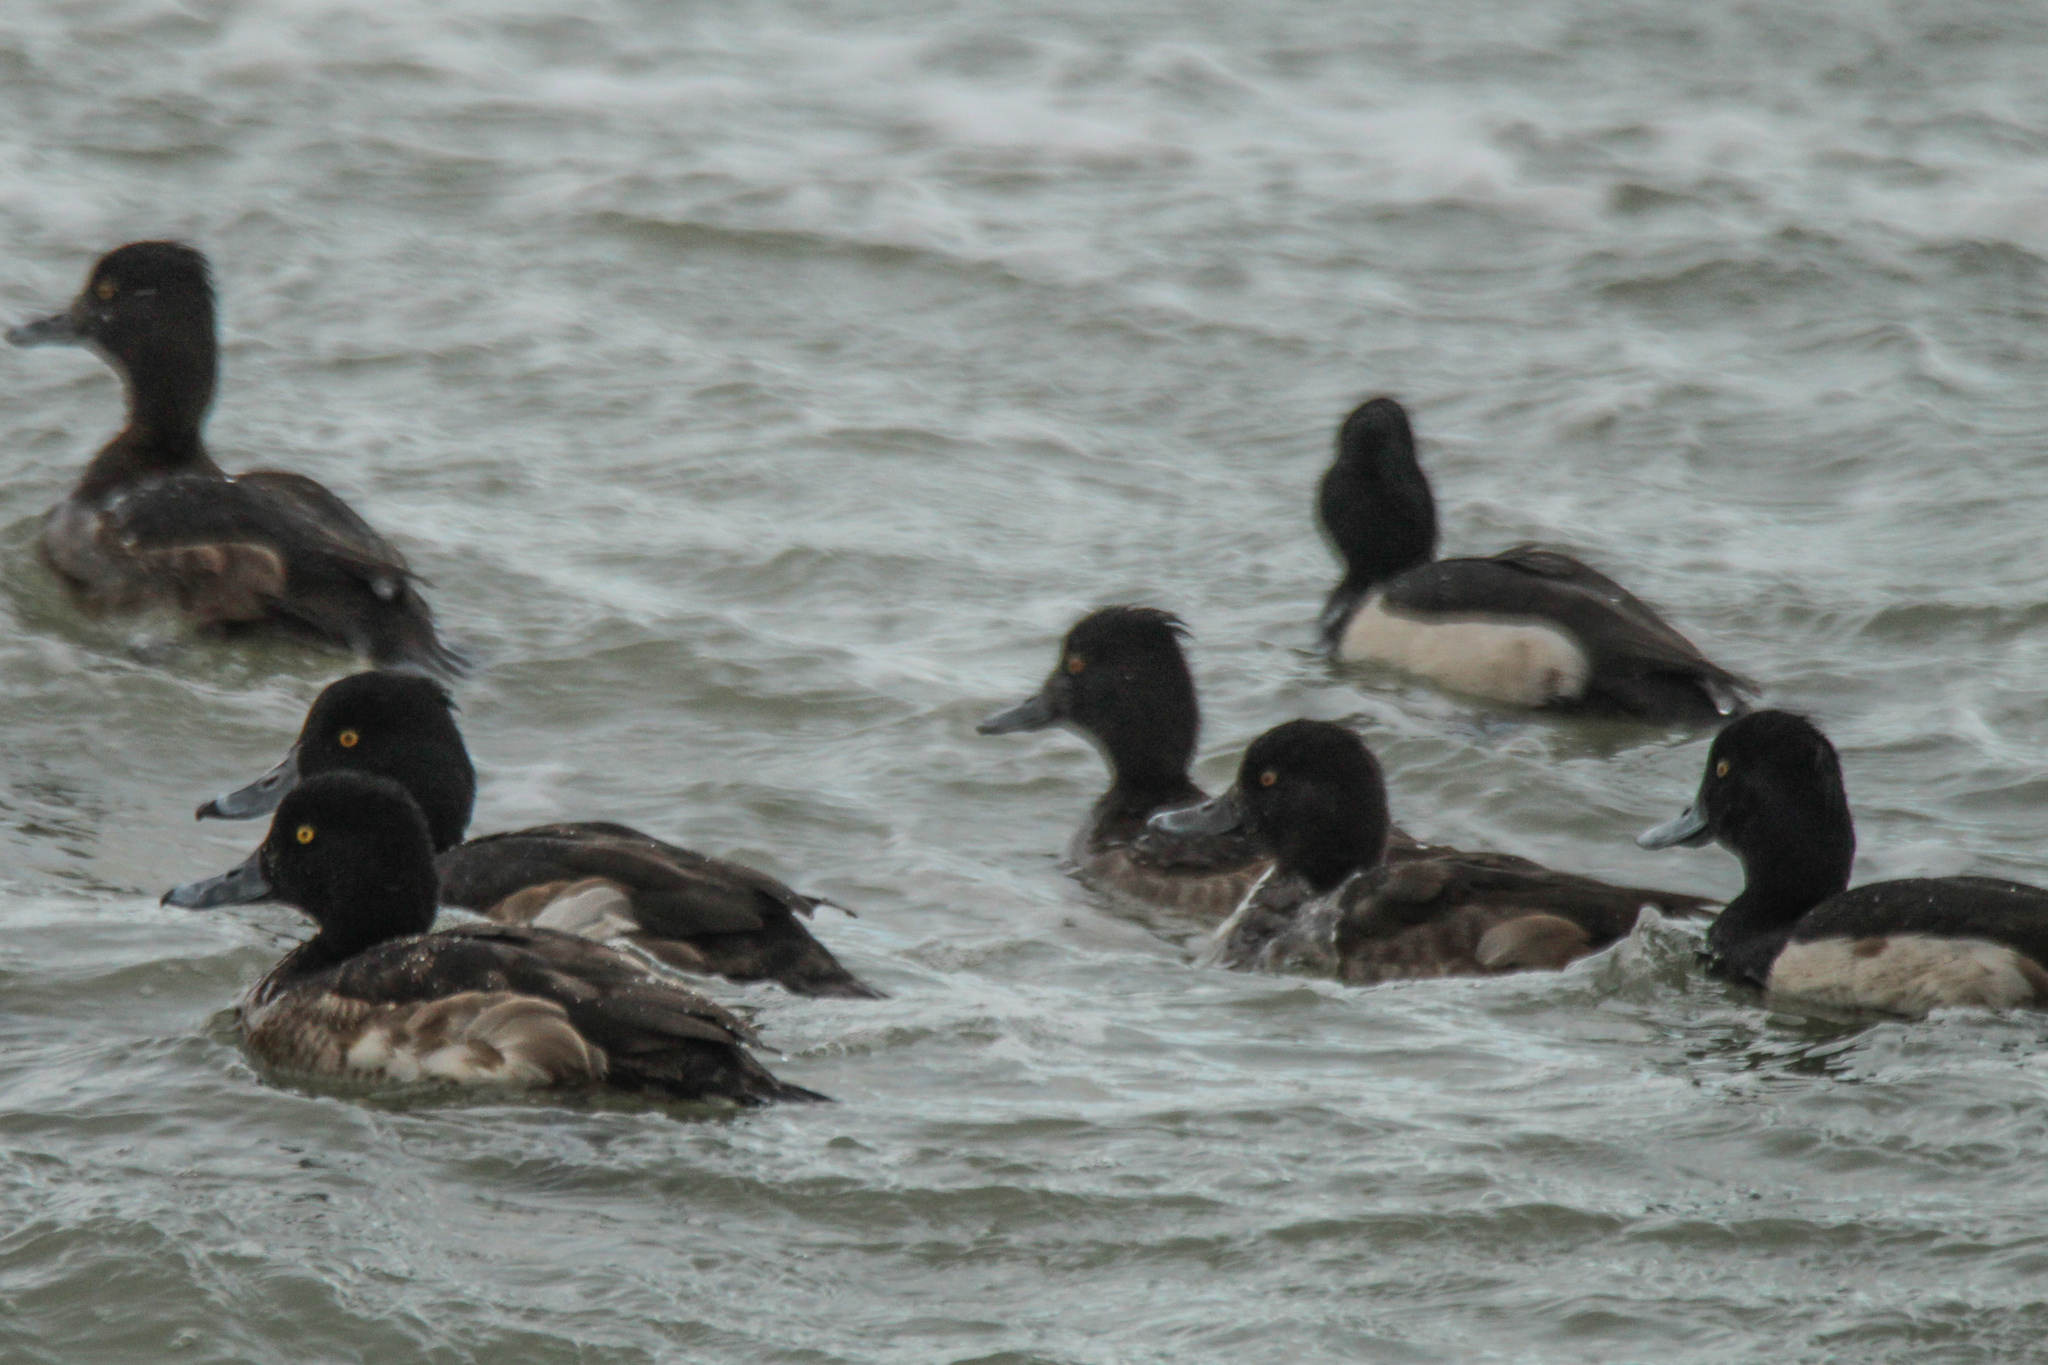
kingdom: Animalia
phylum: Chordata
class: Aves
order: Anseriformes
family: Anatidae
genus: Aythya
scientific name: Aythya fuligula
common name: Tufted duck
